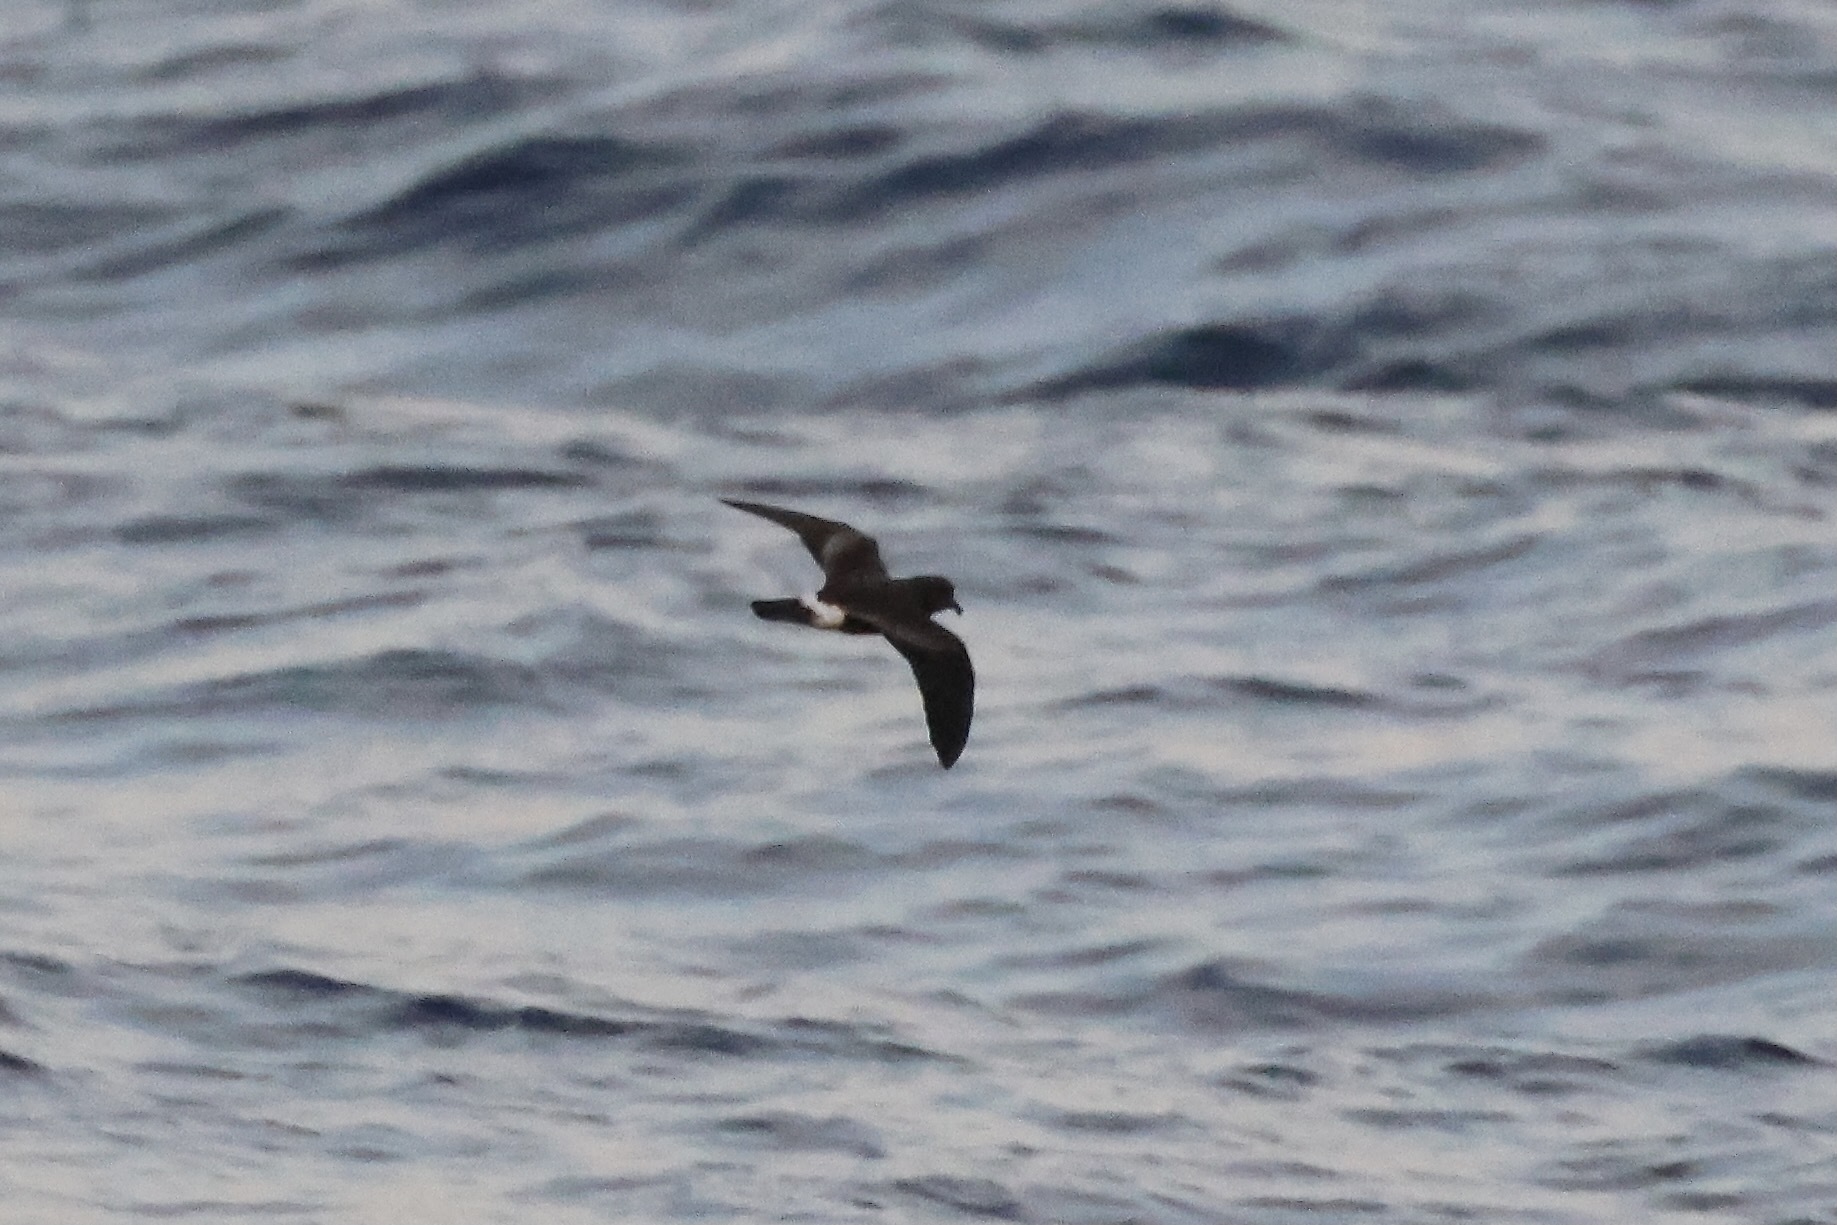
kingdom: Animalia
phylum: Chordata
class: Aves
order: Procellariiformes
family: Hydrobatidae
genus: Oceanodroma
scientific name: Oceanodroma castro
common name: Band-rumped storm-petrel
